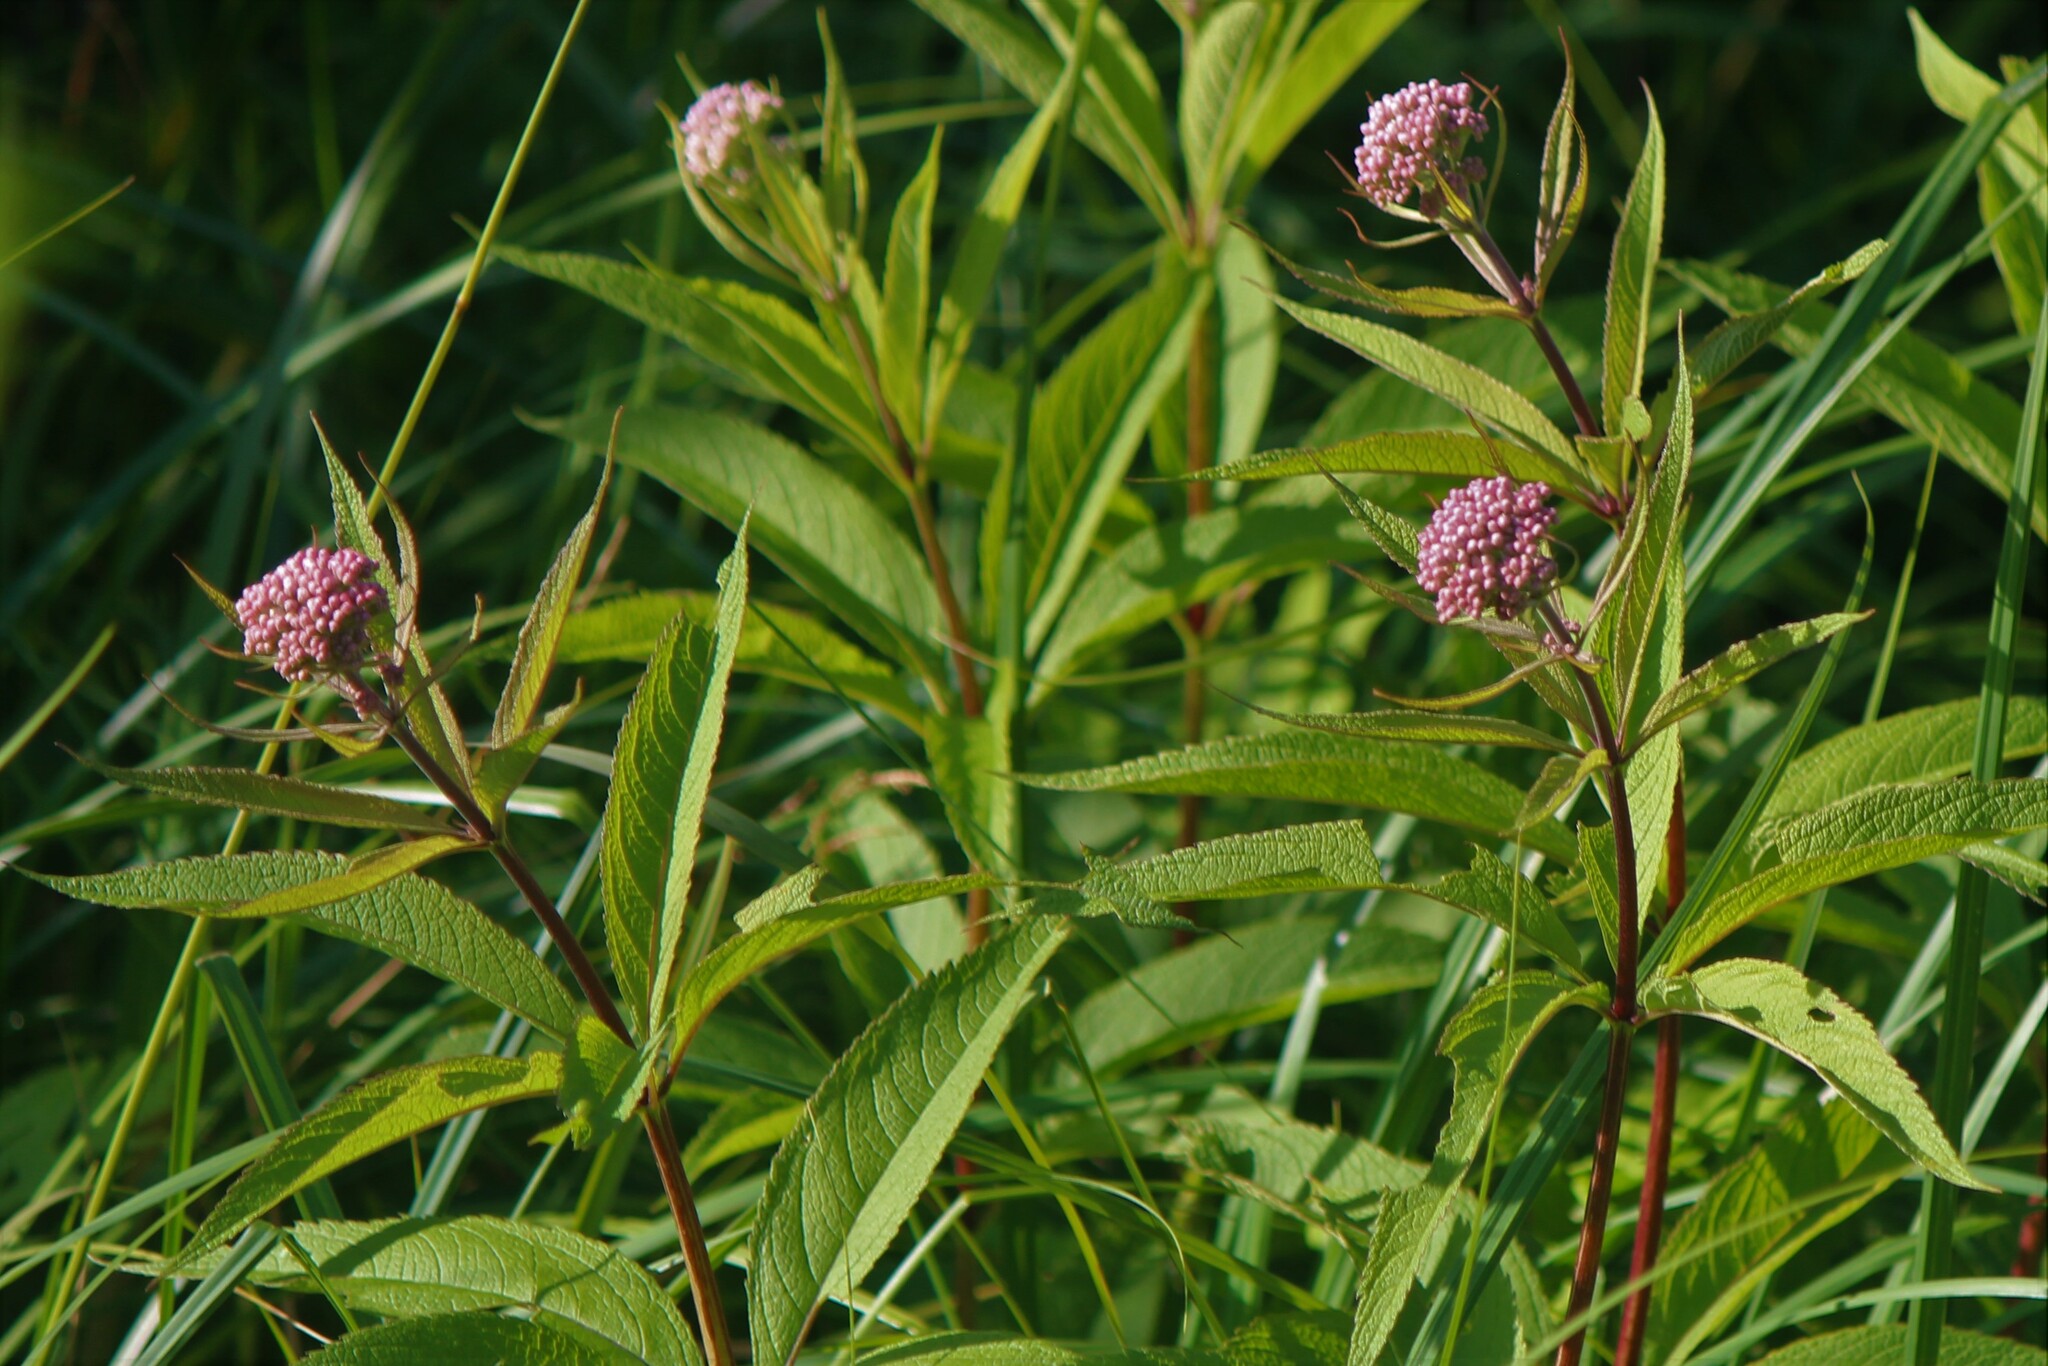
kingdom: Plantae
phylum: Tracheophyta
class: Magnoliopsida
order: Asterales
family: Asteraceae
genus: Eutrochium
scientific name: Eutrochium maculatum
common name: Spotted joe pye weed
